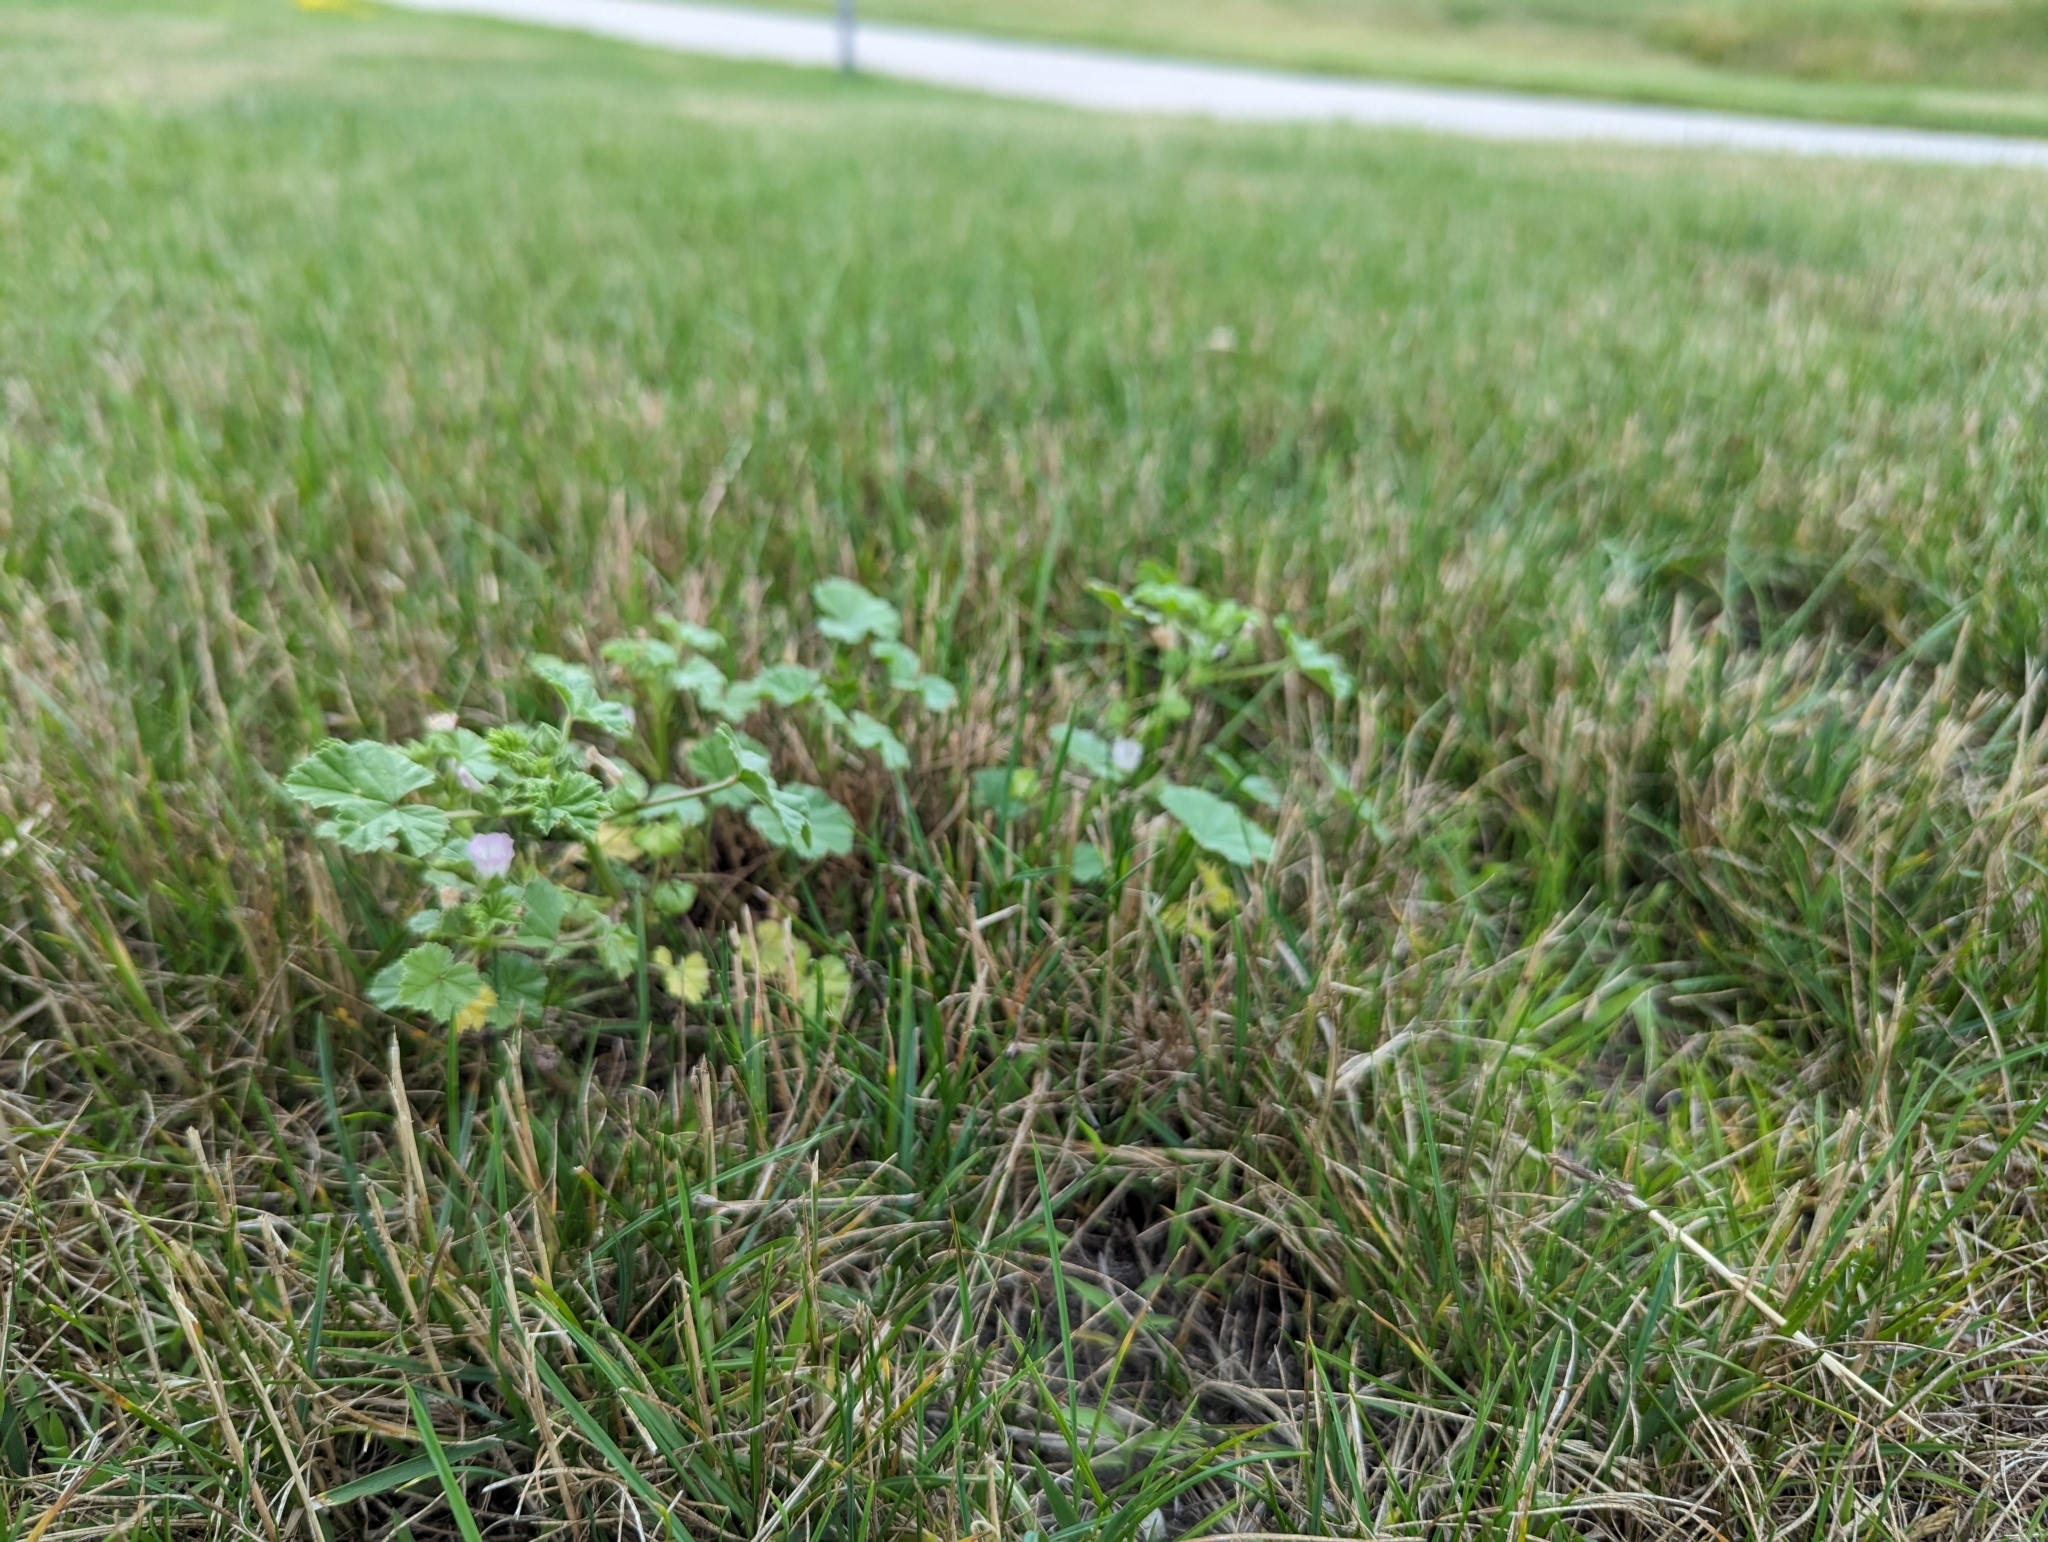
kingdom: Plantae
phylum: Tracheophyta
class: Magnoliopsida
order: Malvales
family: Malvaceae
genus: Malva
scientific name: Malva neglecta
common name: Common mallow
